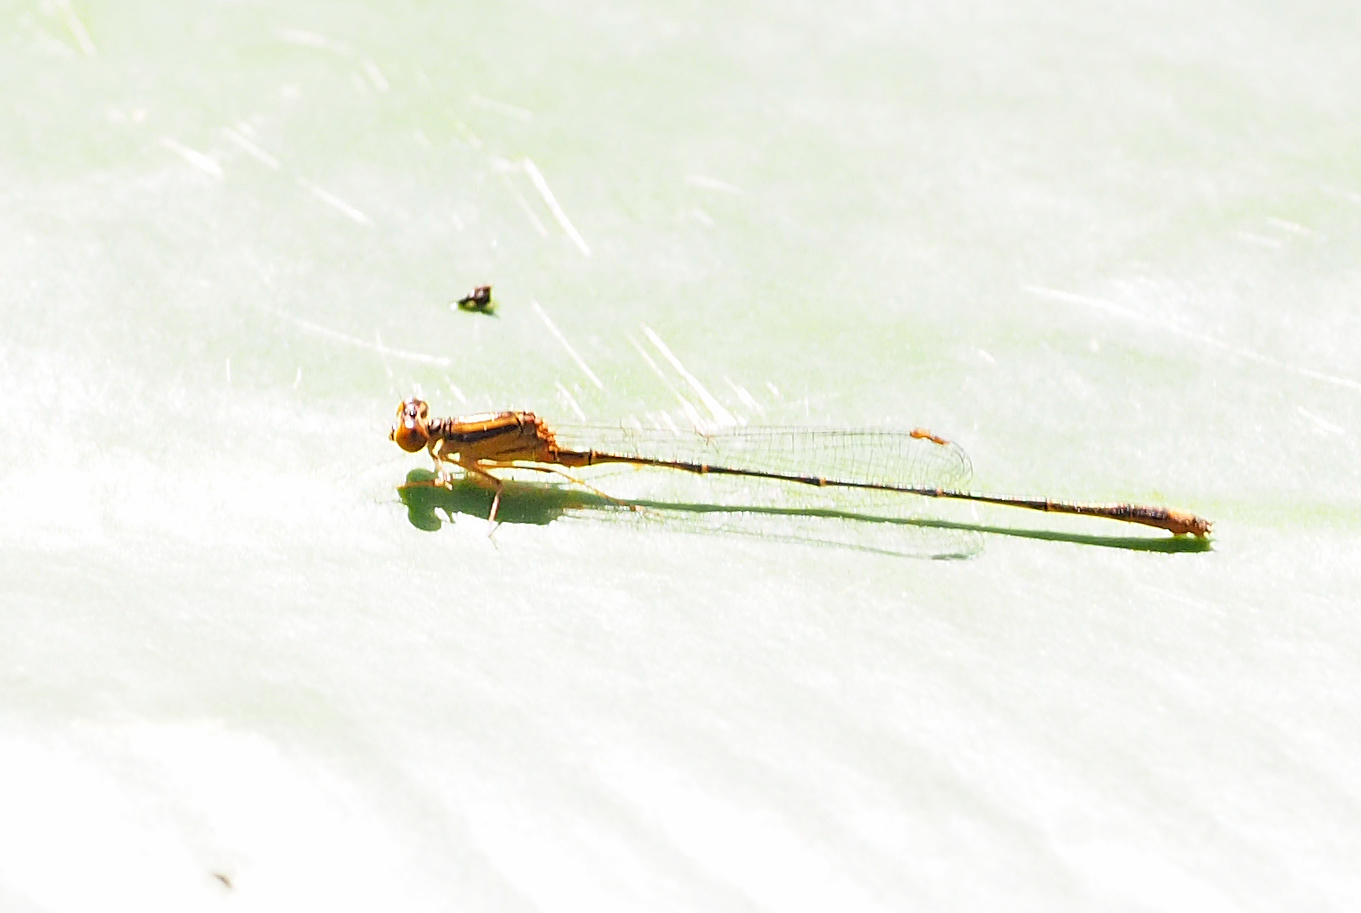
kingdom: Animalia
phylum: Arthropoda
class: Insecta
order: Odonata
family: Coenagrionidae
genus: Enallagma
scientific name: Enallagma pollutum
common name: Florida bluet
